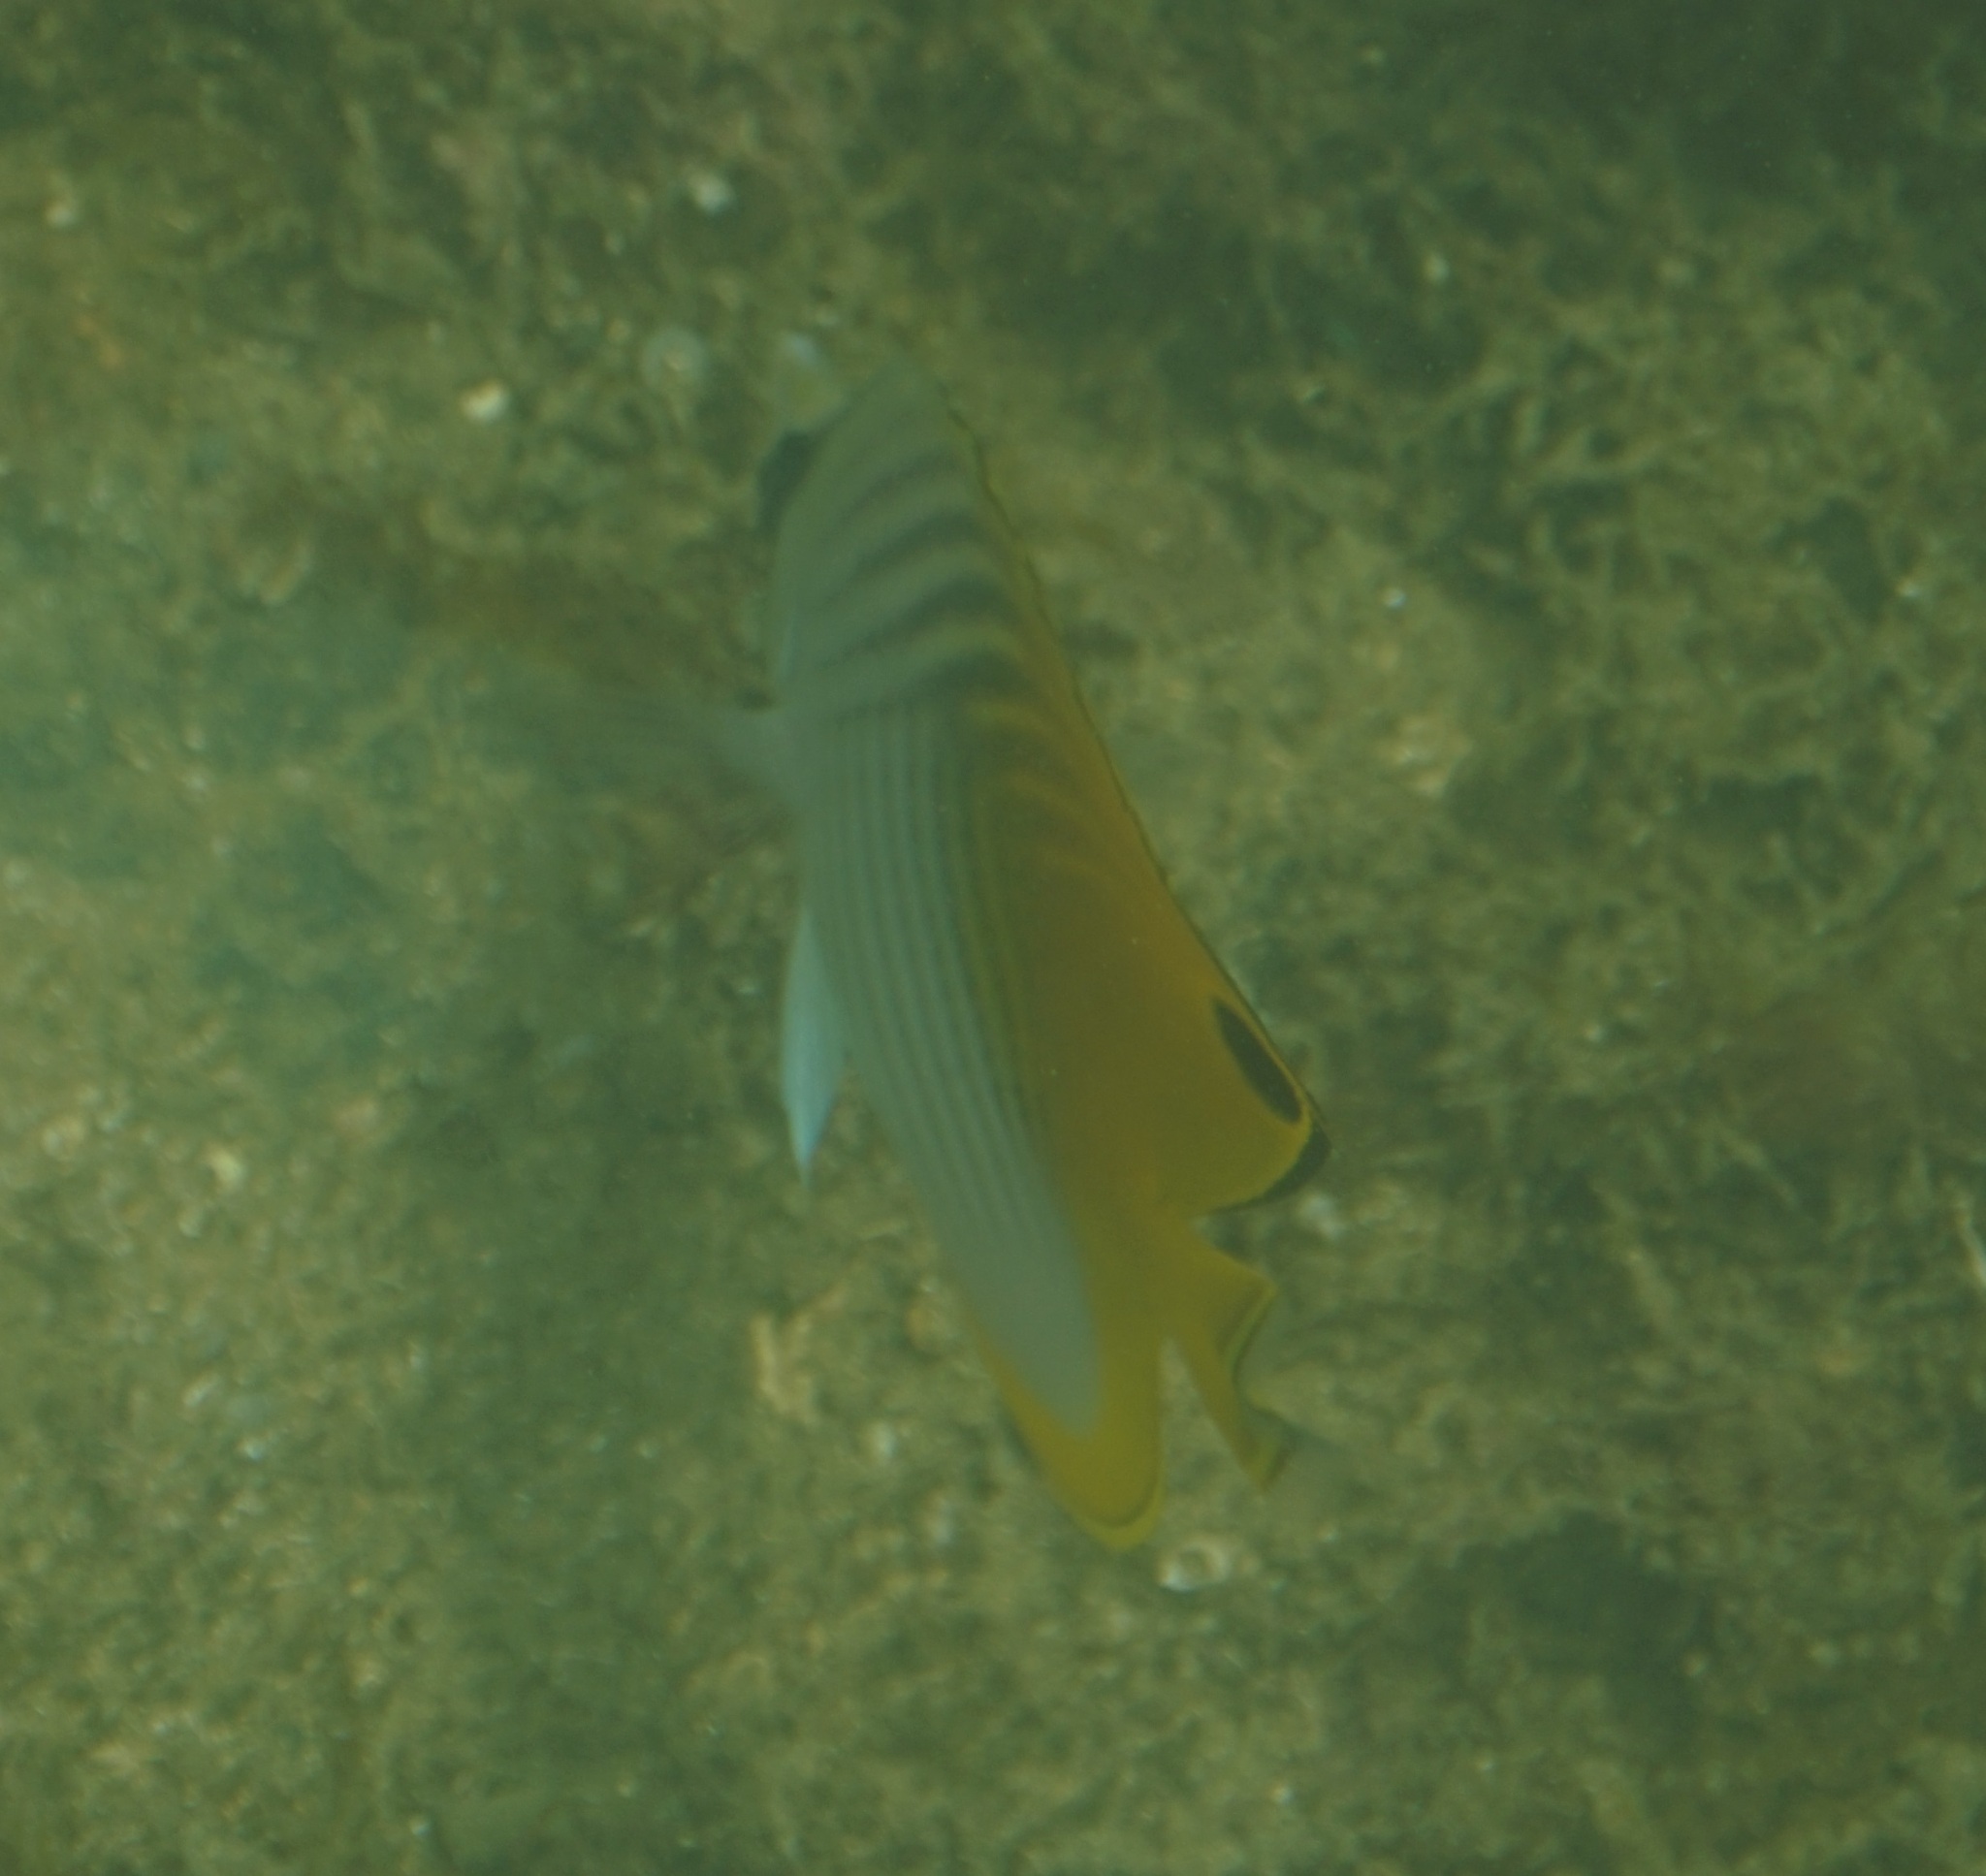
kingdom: Animalia
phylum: Chordata
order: Perciformes
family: Chaetodontidae
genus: Chaetodon
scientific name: Chaetodon auriga
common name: Threadfin butterflyfish
